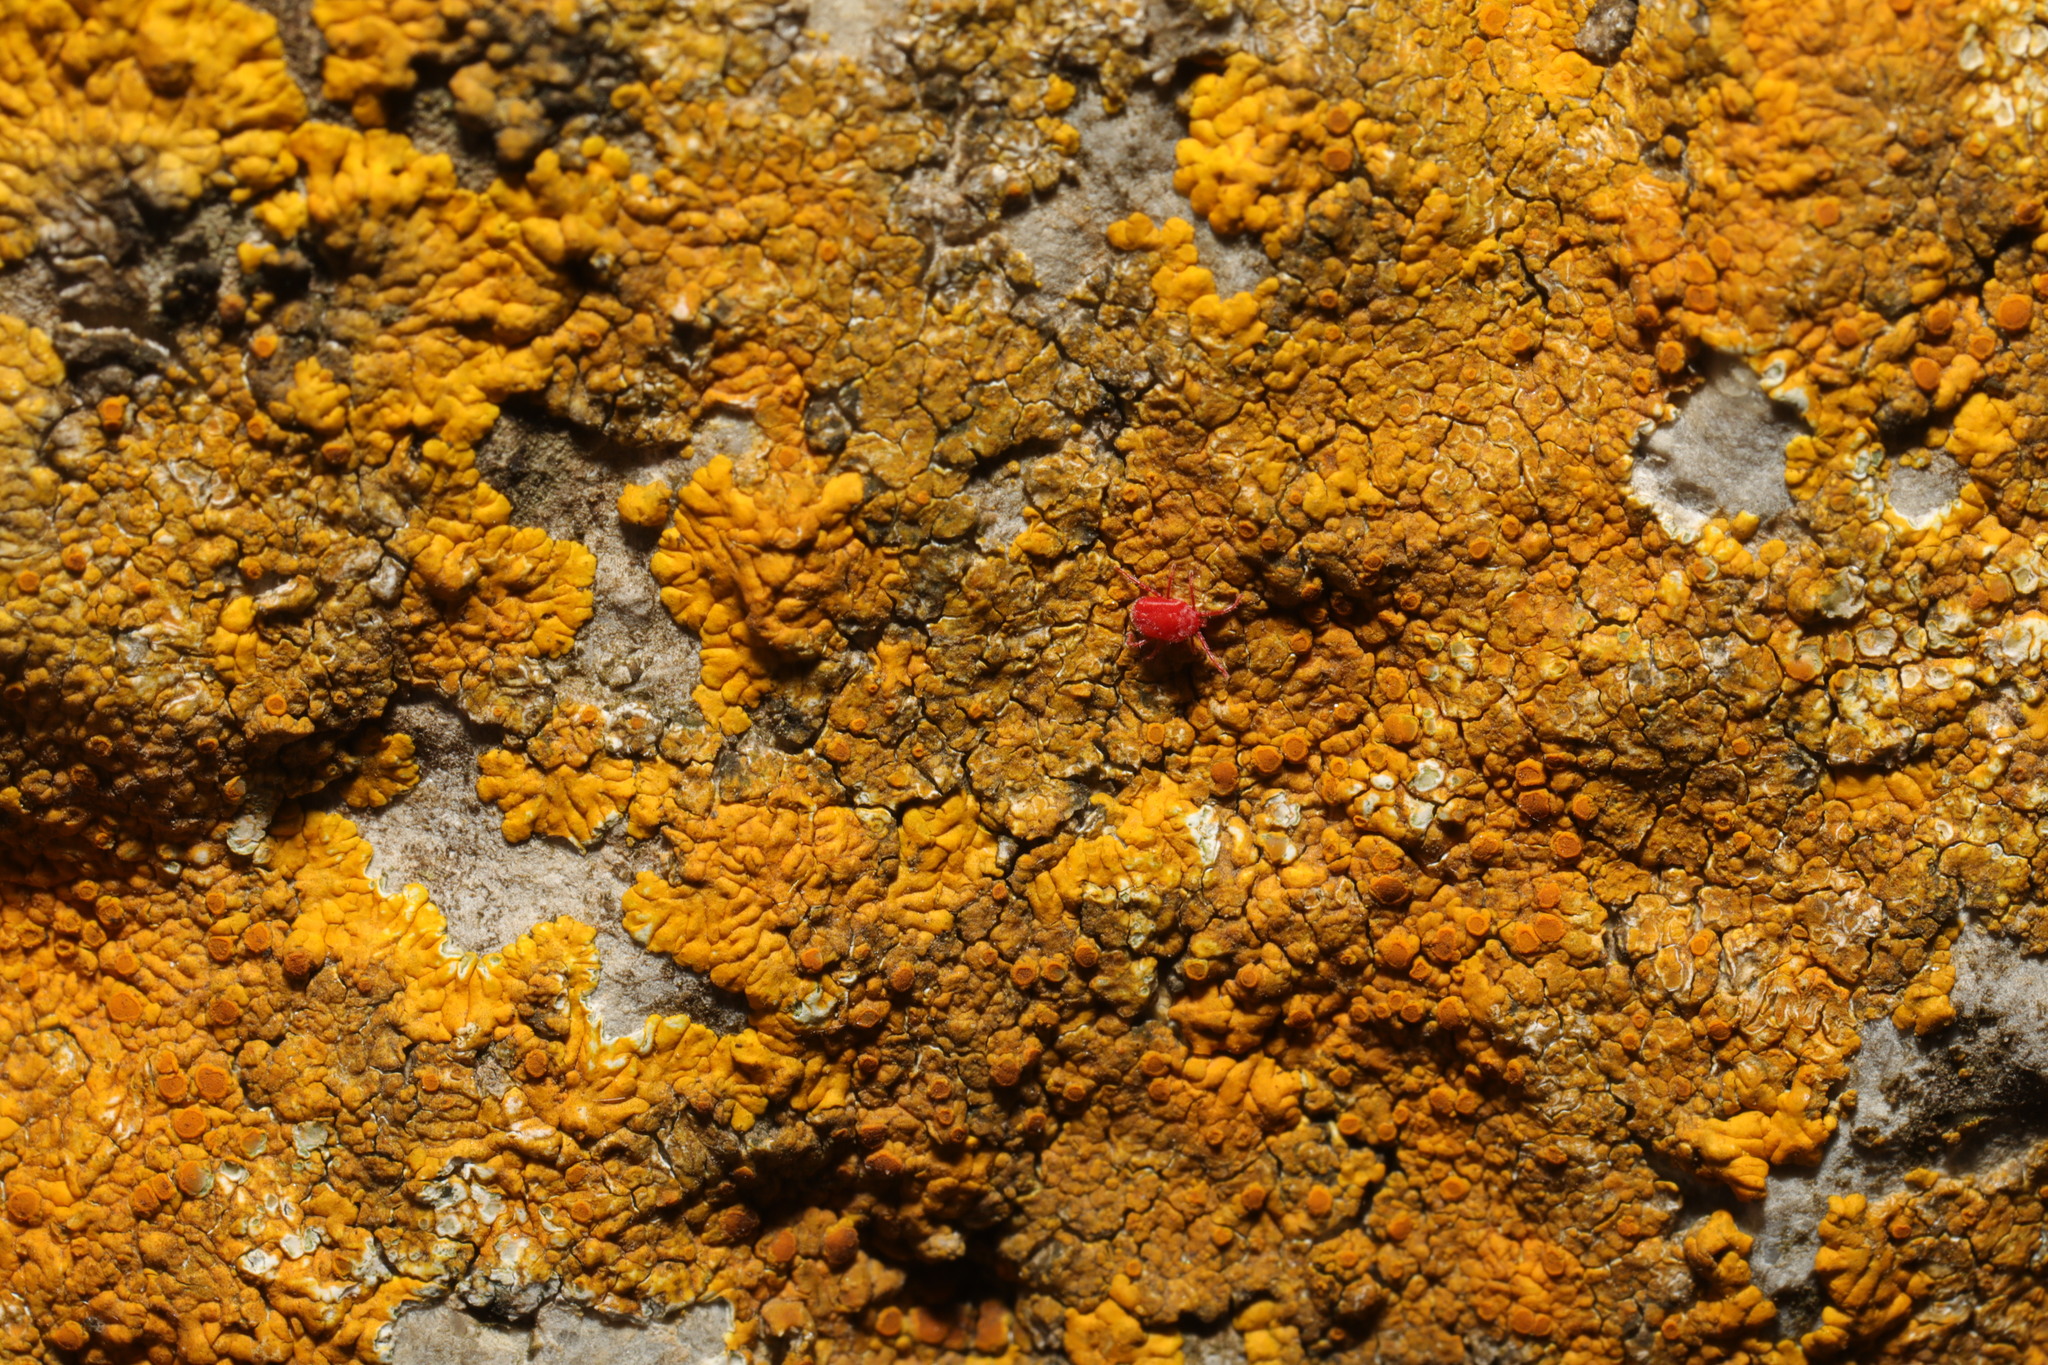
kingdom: Fungi
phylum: Ascomycota
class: Lecanoromycetes
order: Teloschistales
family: Teloschistaceae
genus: Variospora
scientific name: Variospora flavescens
